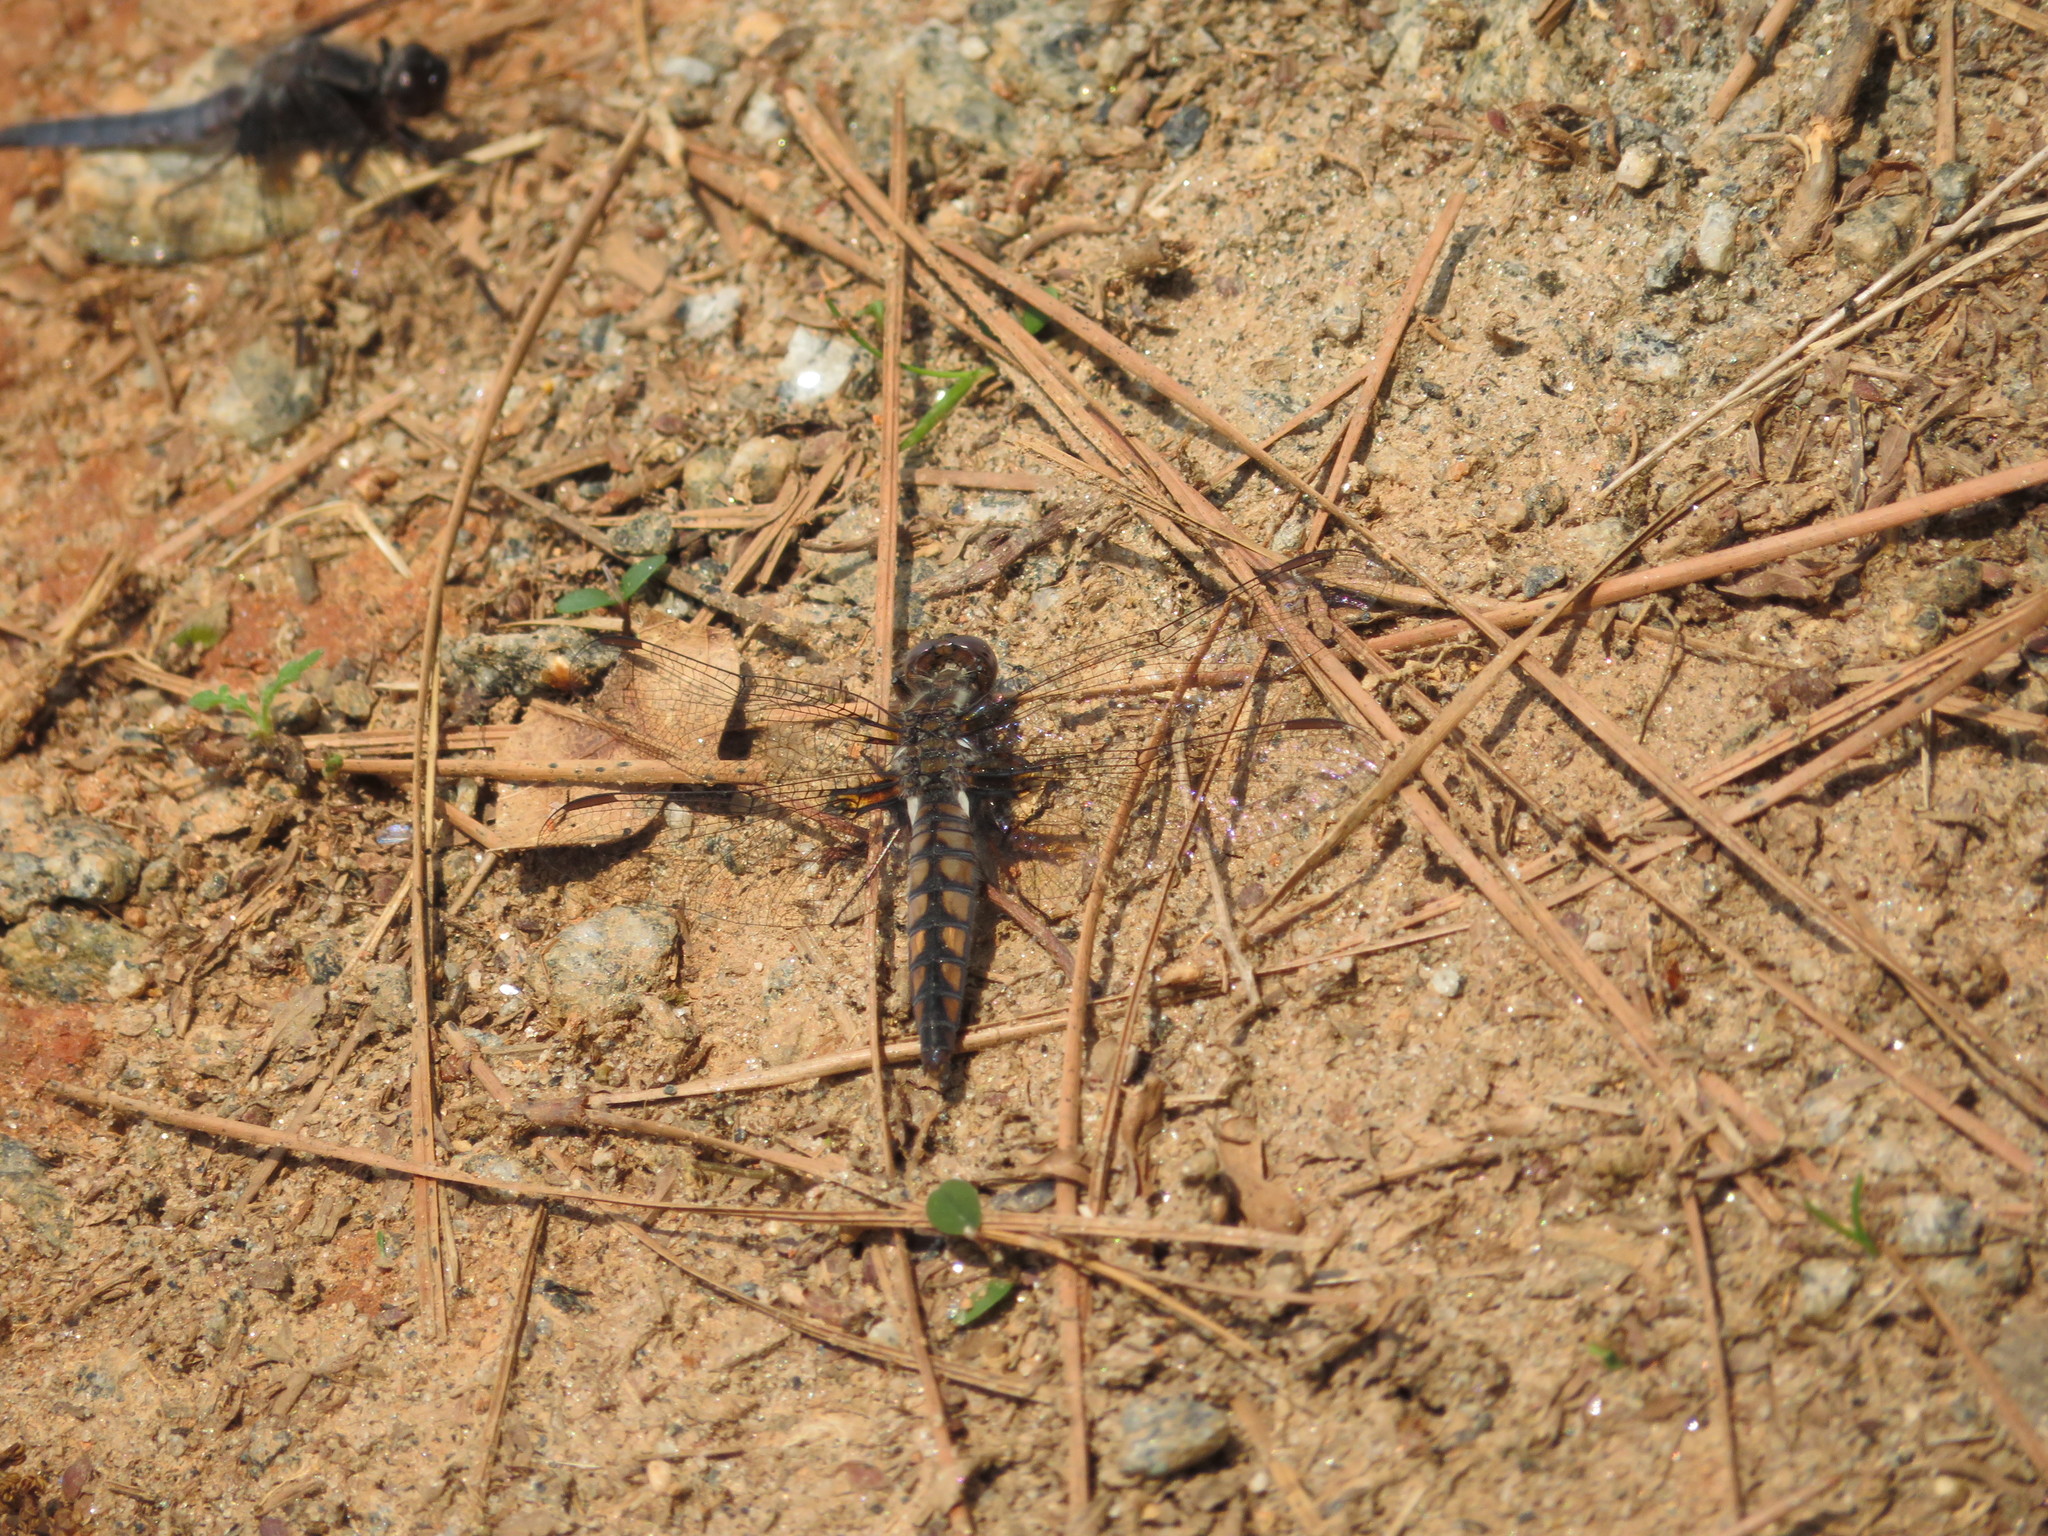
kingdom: Animalia
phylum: Arthropoda
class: Insecta
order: Odonata
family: Libellulidae
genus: Ladona
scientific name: Ladona deplanata
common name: Blue corporal
